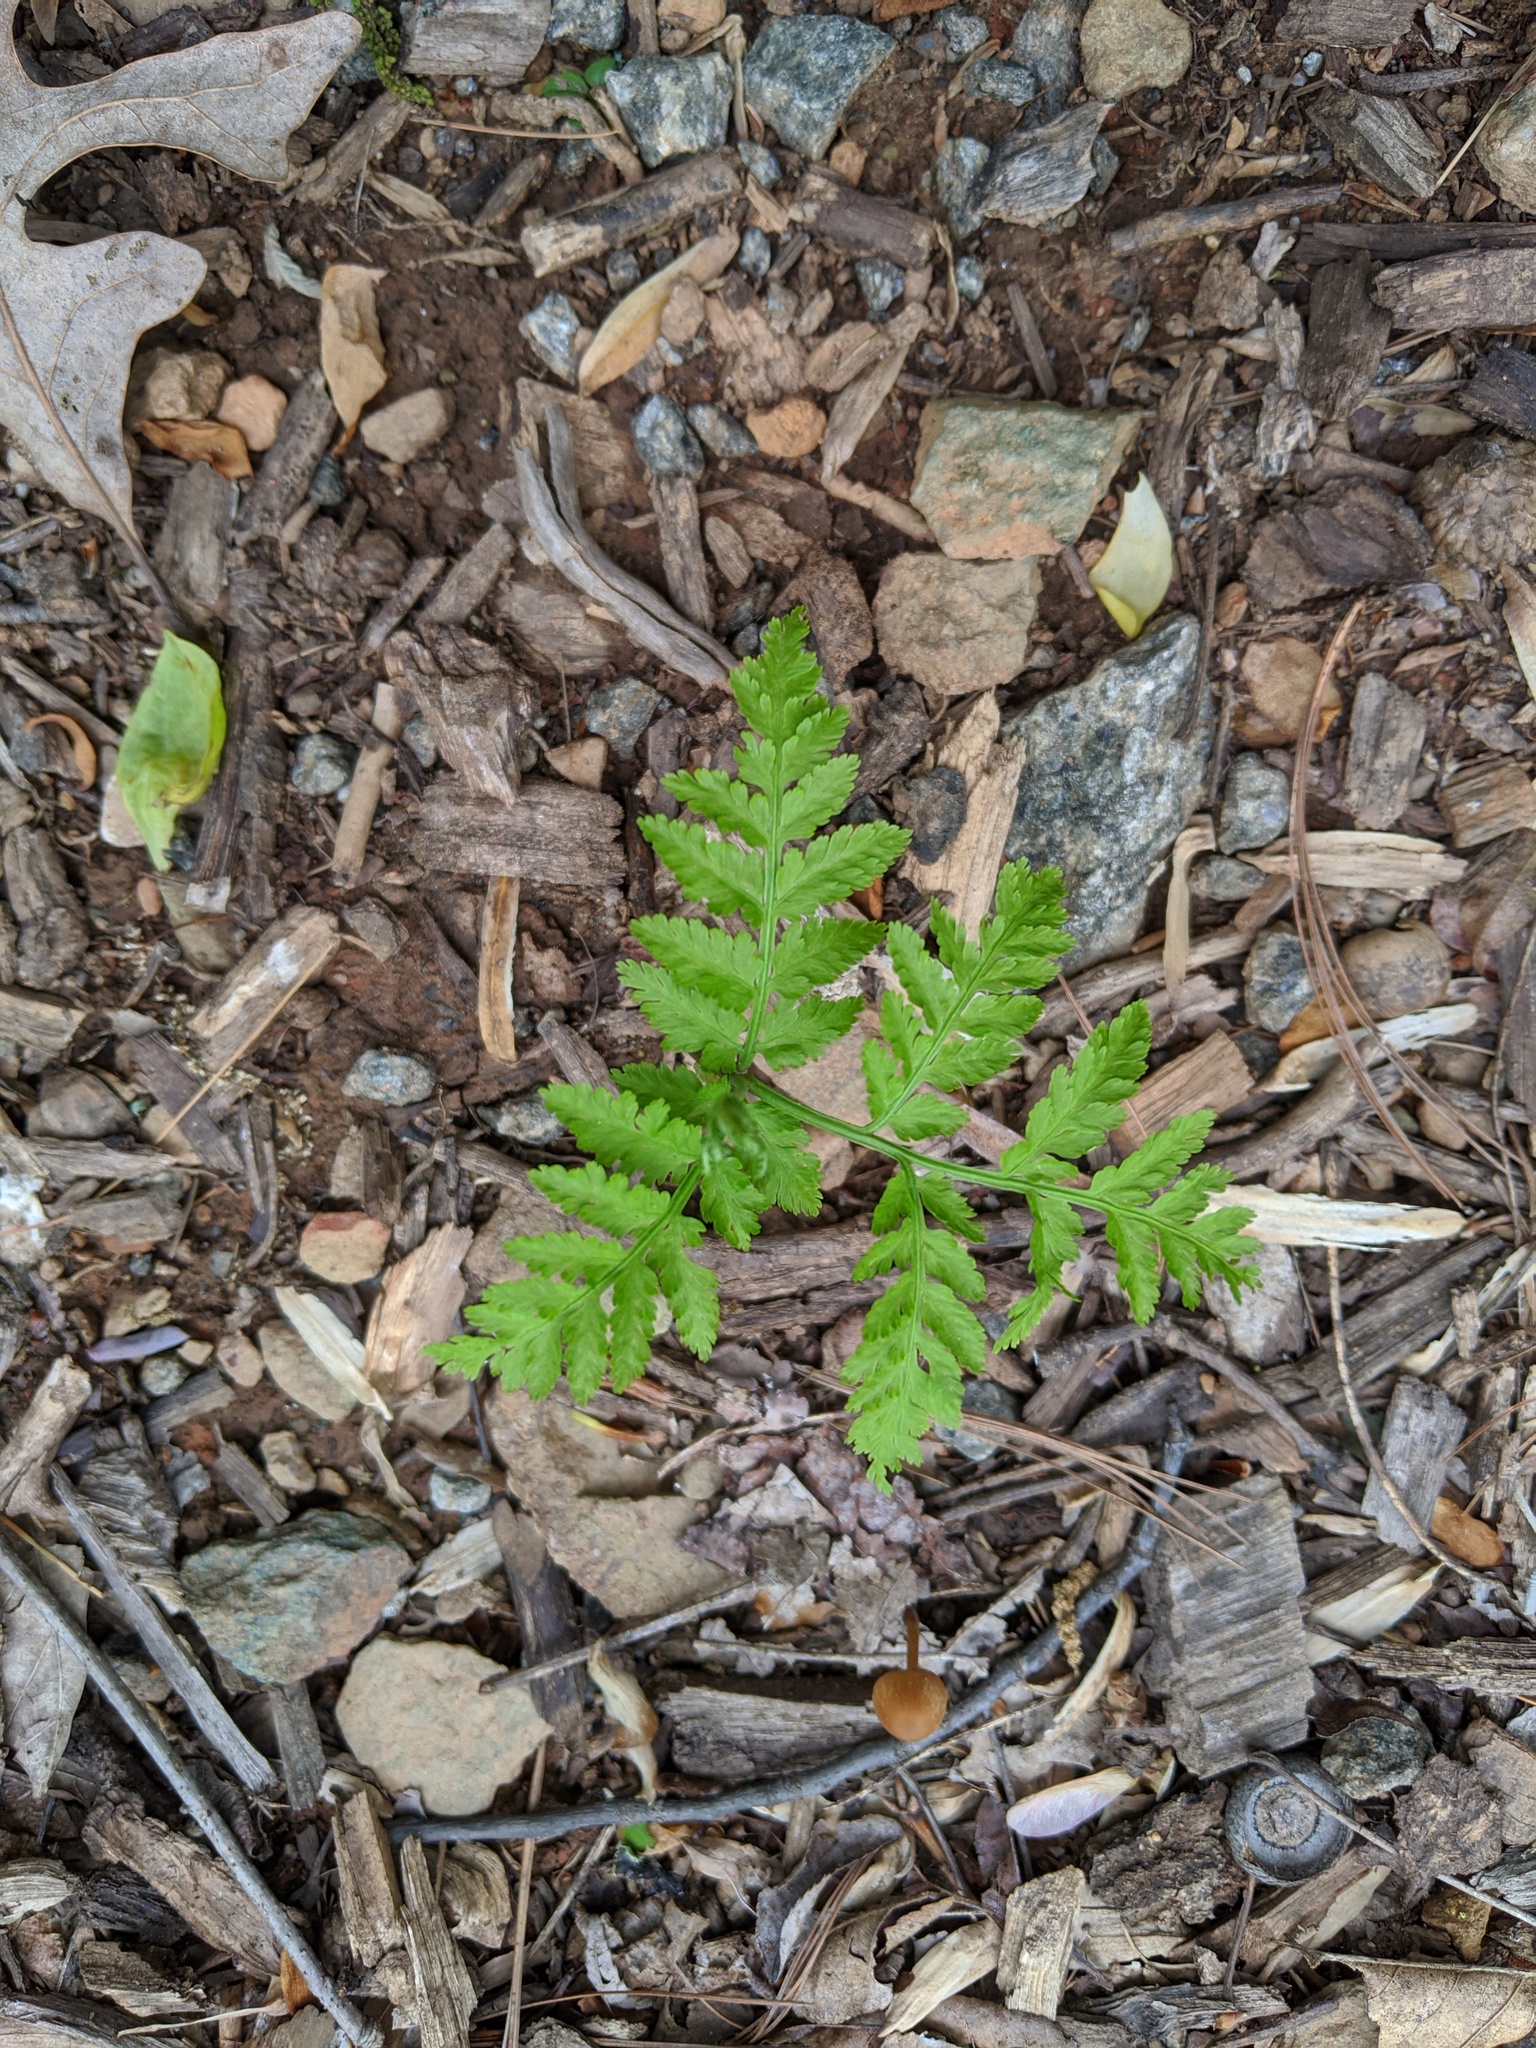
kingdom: Plantae
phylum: Tracheophyta
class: Polypodiopsida
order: Ophioglossales
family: Ophioglossaceae
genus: Botrypus
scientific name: Botrypus virginianus
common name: Common grapefern
